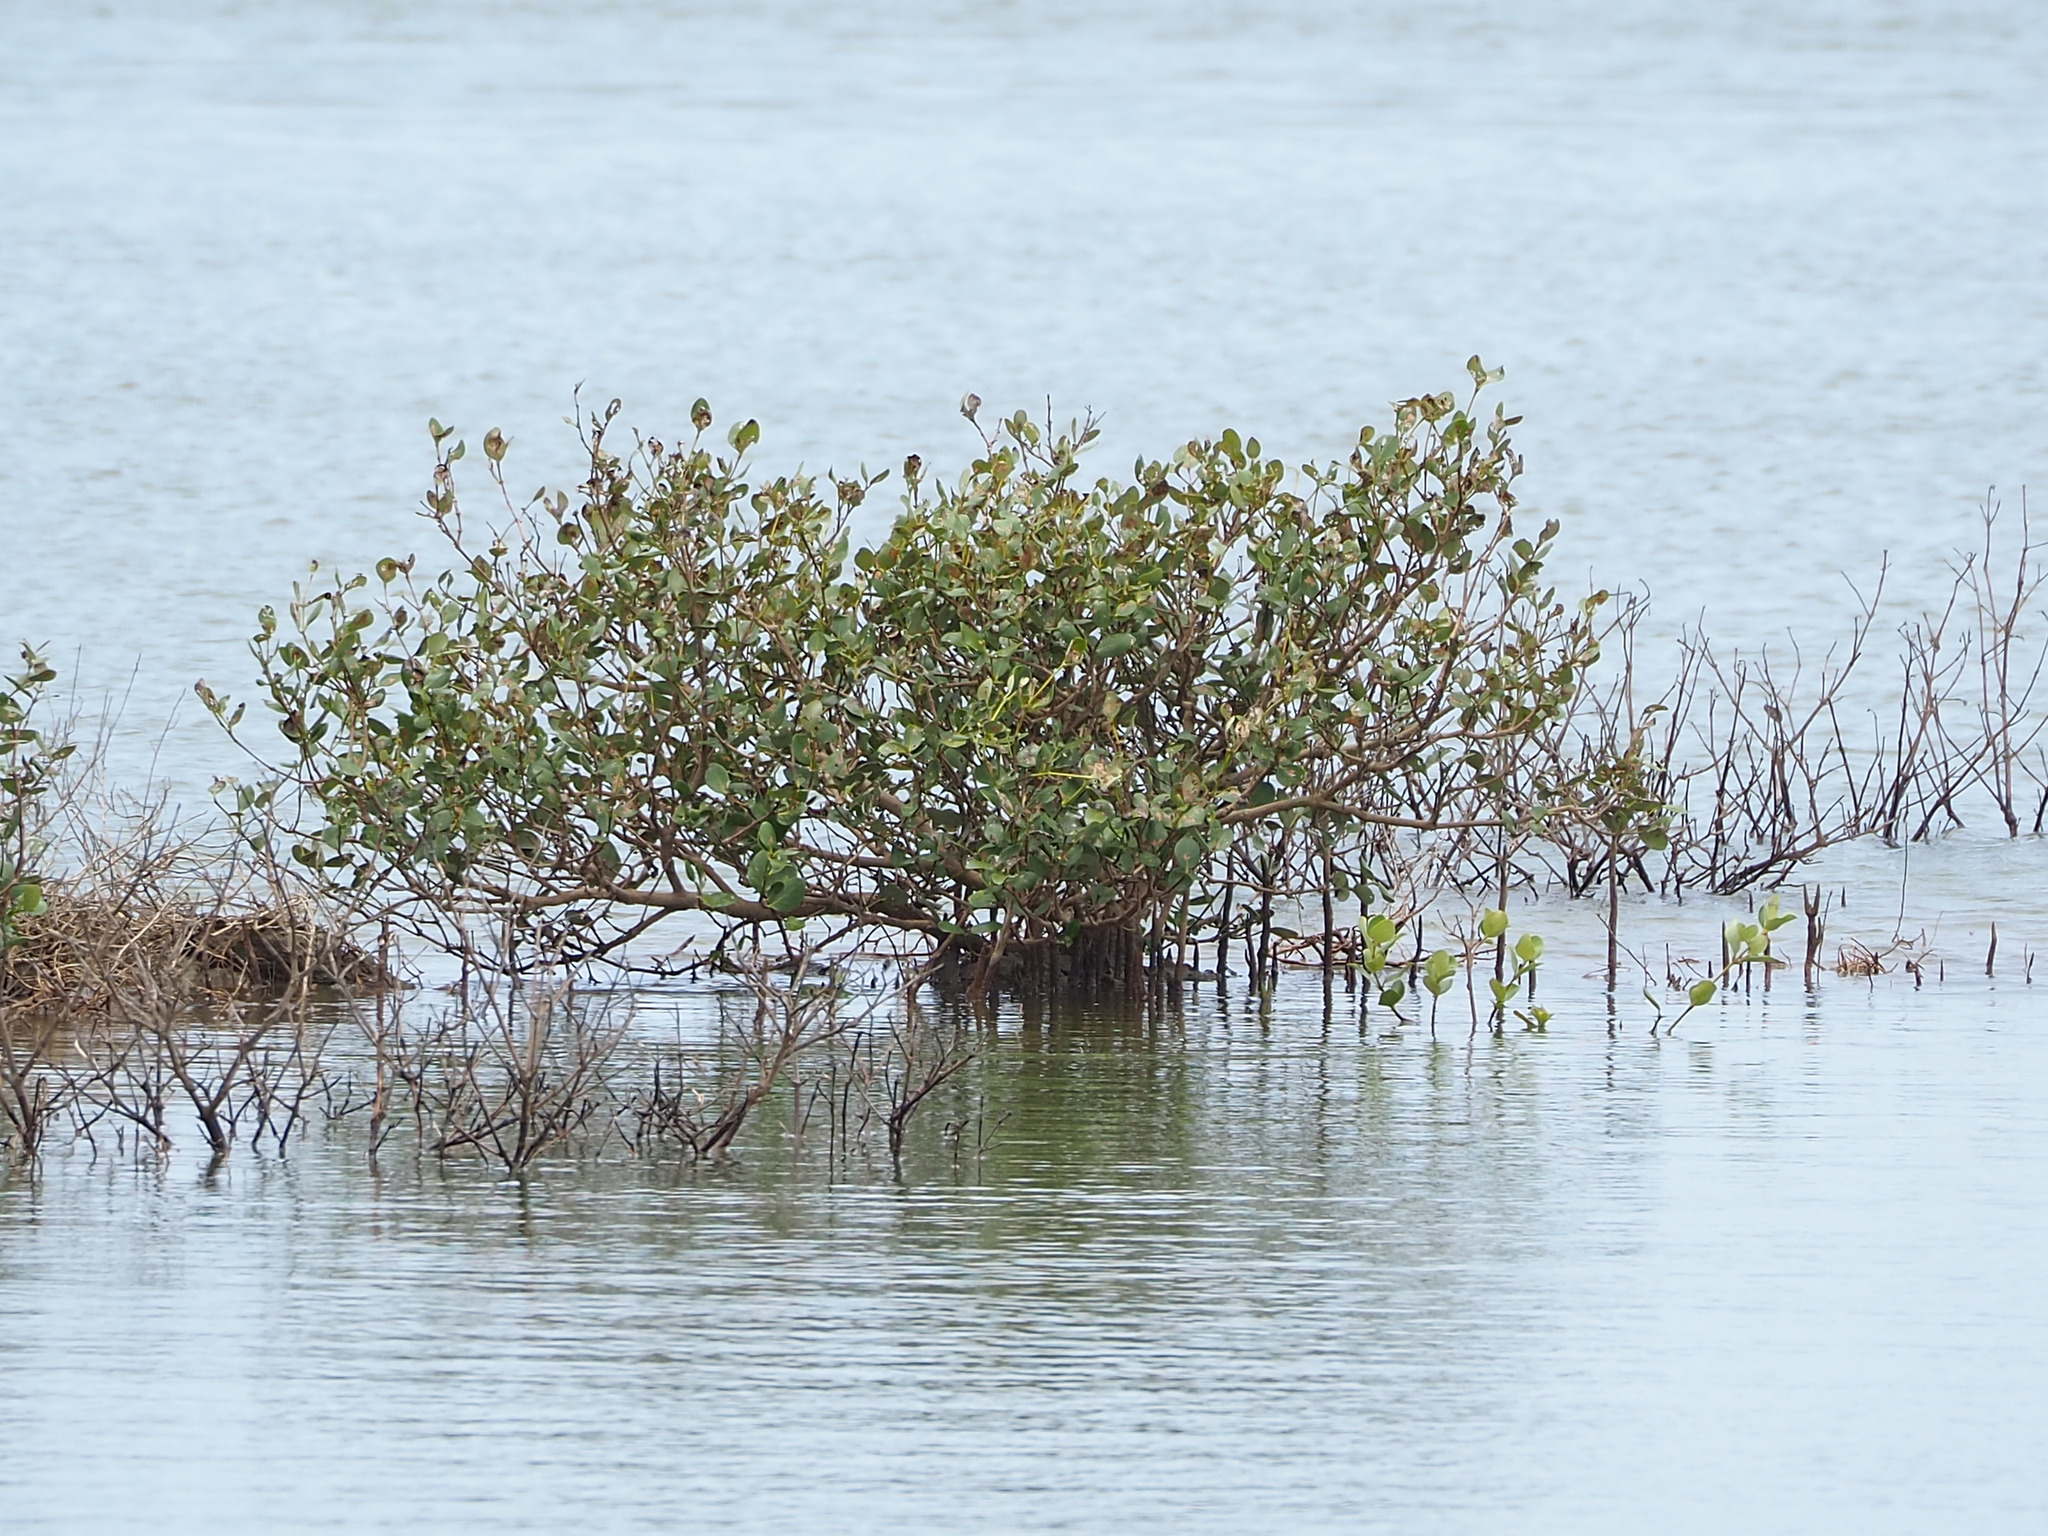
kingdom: Plantae
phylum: Tracheophyta
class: Magnoliopsida
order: Lamiales
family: Acanthaceae
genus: Avicennia
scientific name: Avicennia marina
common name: Gray mangrove
